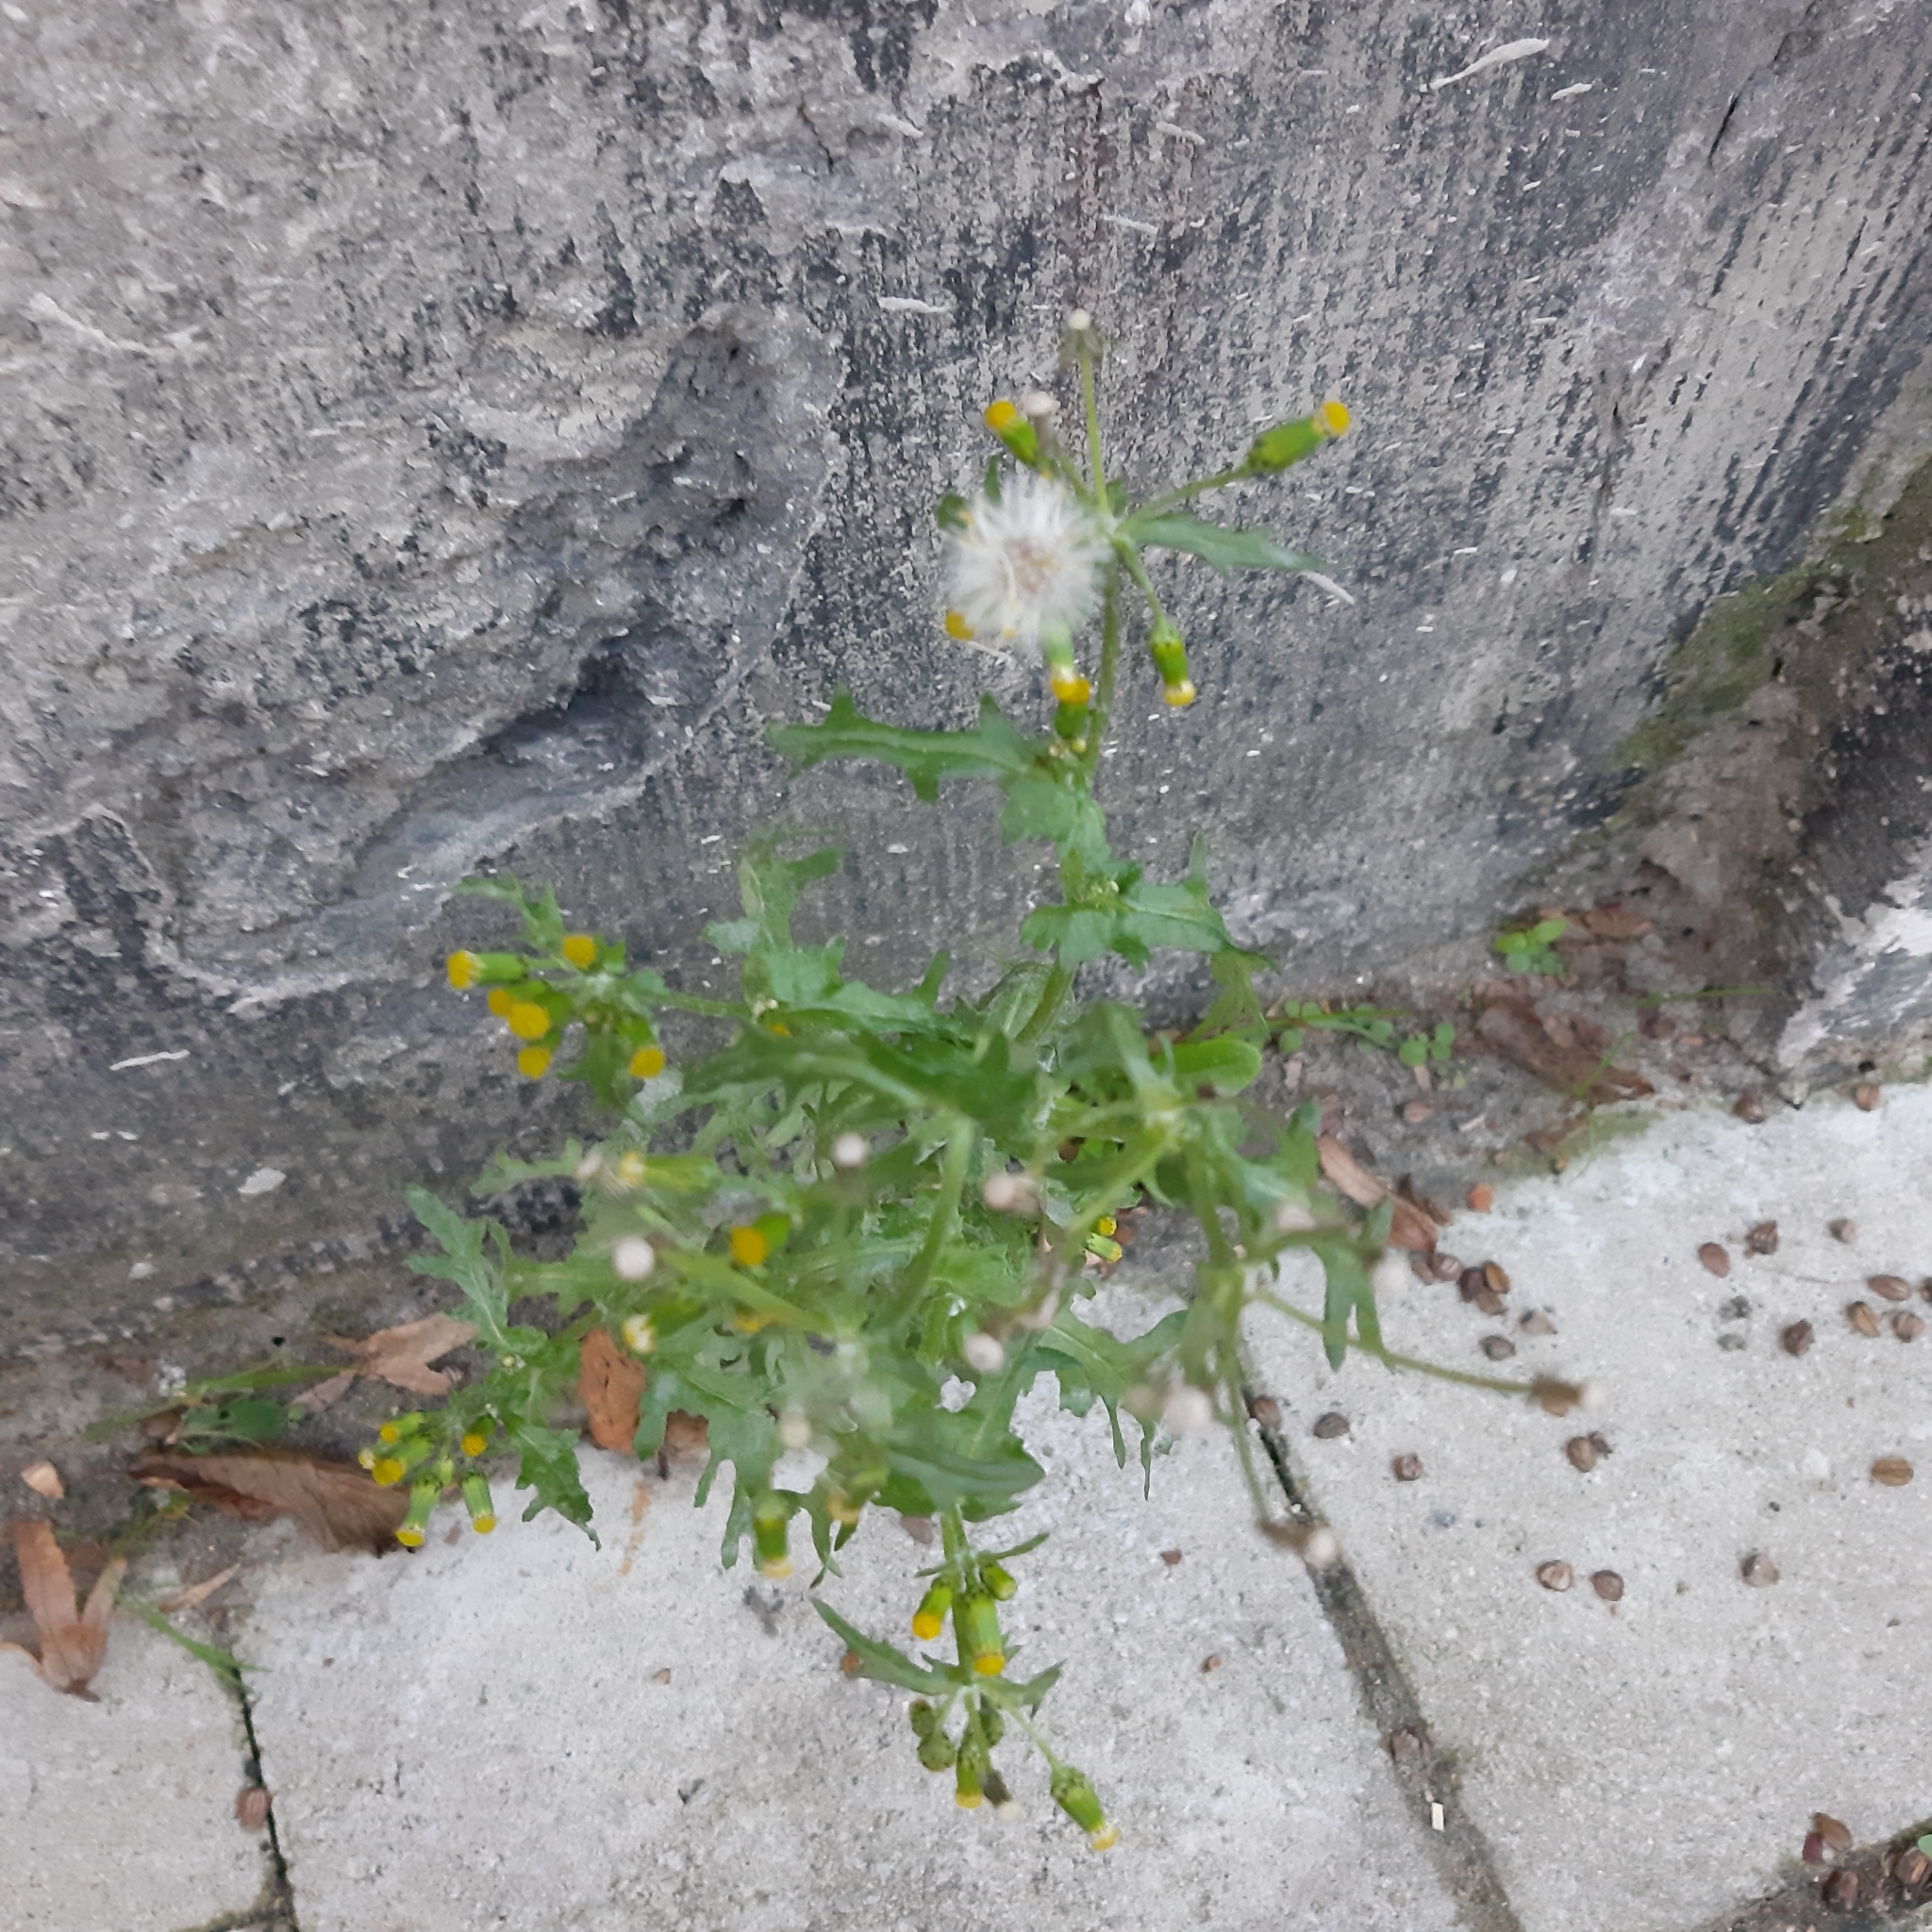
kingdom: Plantae
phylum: Tracheophyta
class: Magnoliopsida
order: Asterales
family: Asteraceae
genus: Senecio
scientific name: Senecio vulgaris
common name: Old-man-in-the-spring
